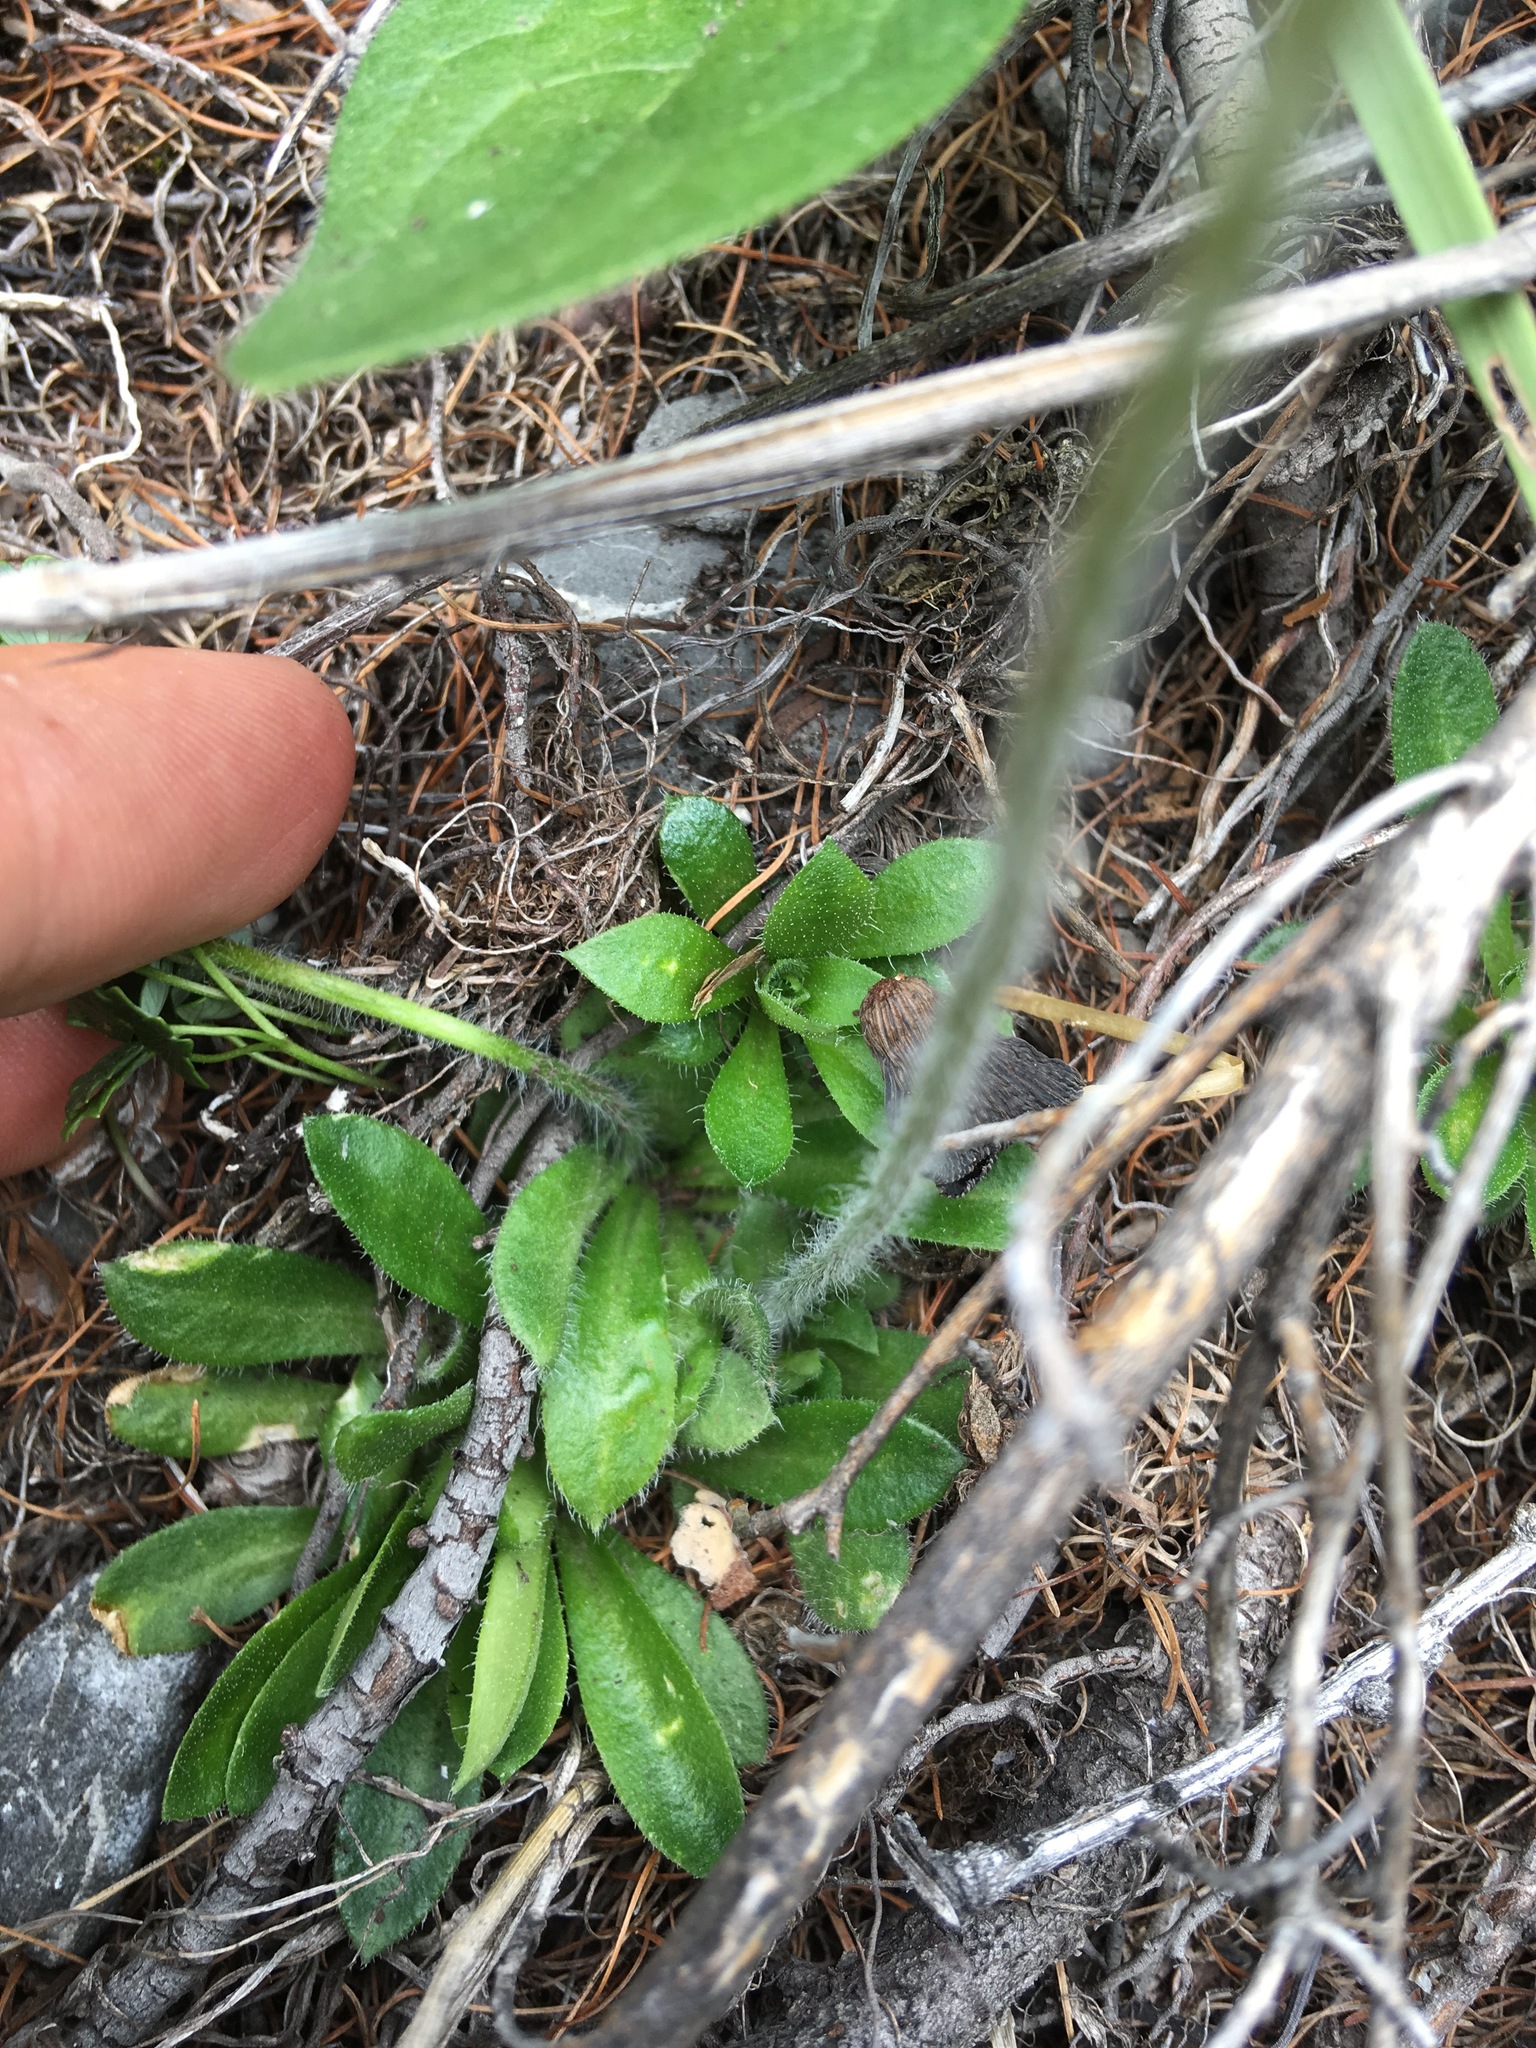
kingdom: Plantae
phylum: Tracheophyta
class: Magnoliopsida
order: Ericales
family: Primulaceae
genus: Androsace
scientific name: Androsace bungeana
